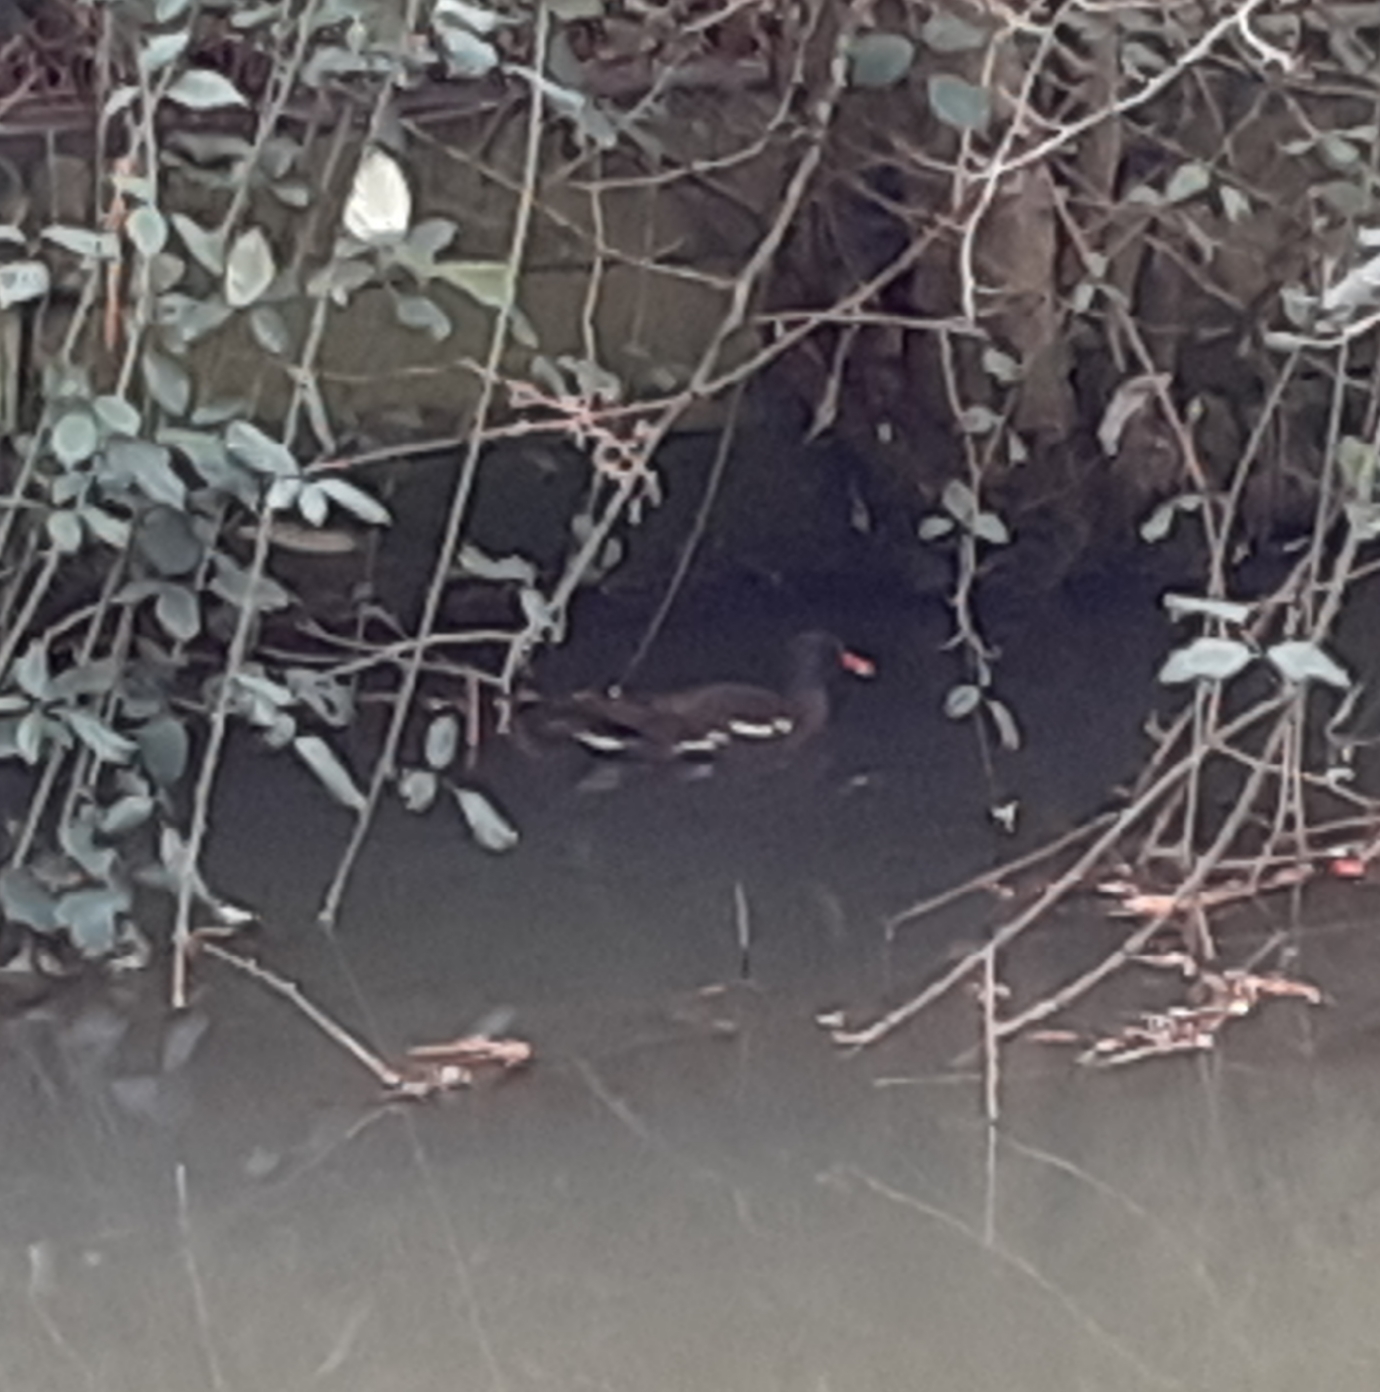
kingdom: Animalia
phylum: Chordata
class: Aves
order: Gruiformes
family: Rallidae
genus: Gallinula
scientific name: Gallinula chloropus
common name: Common moorhen
